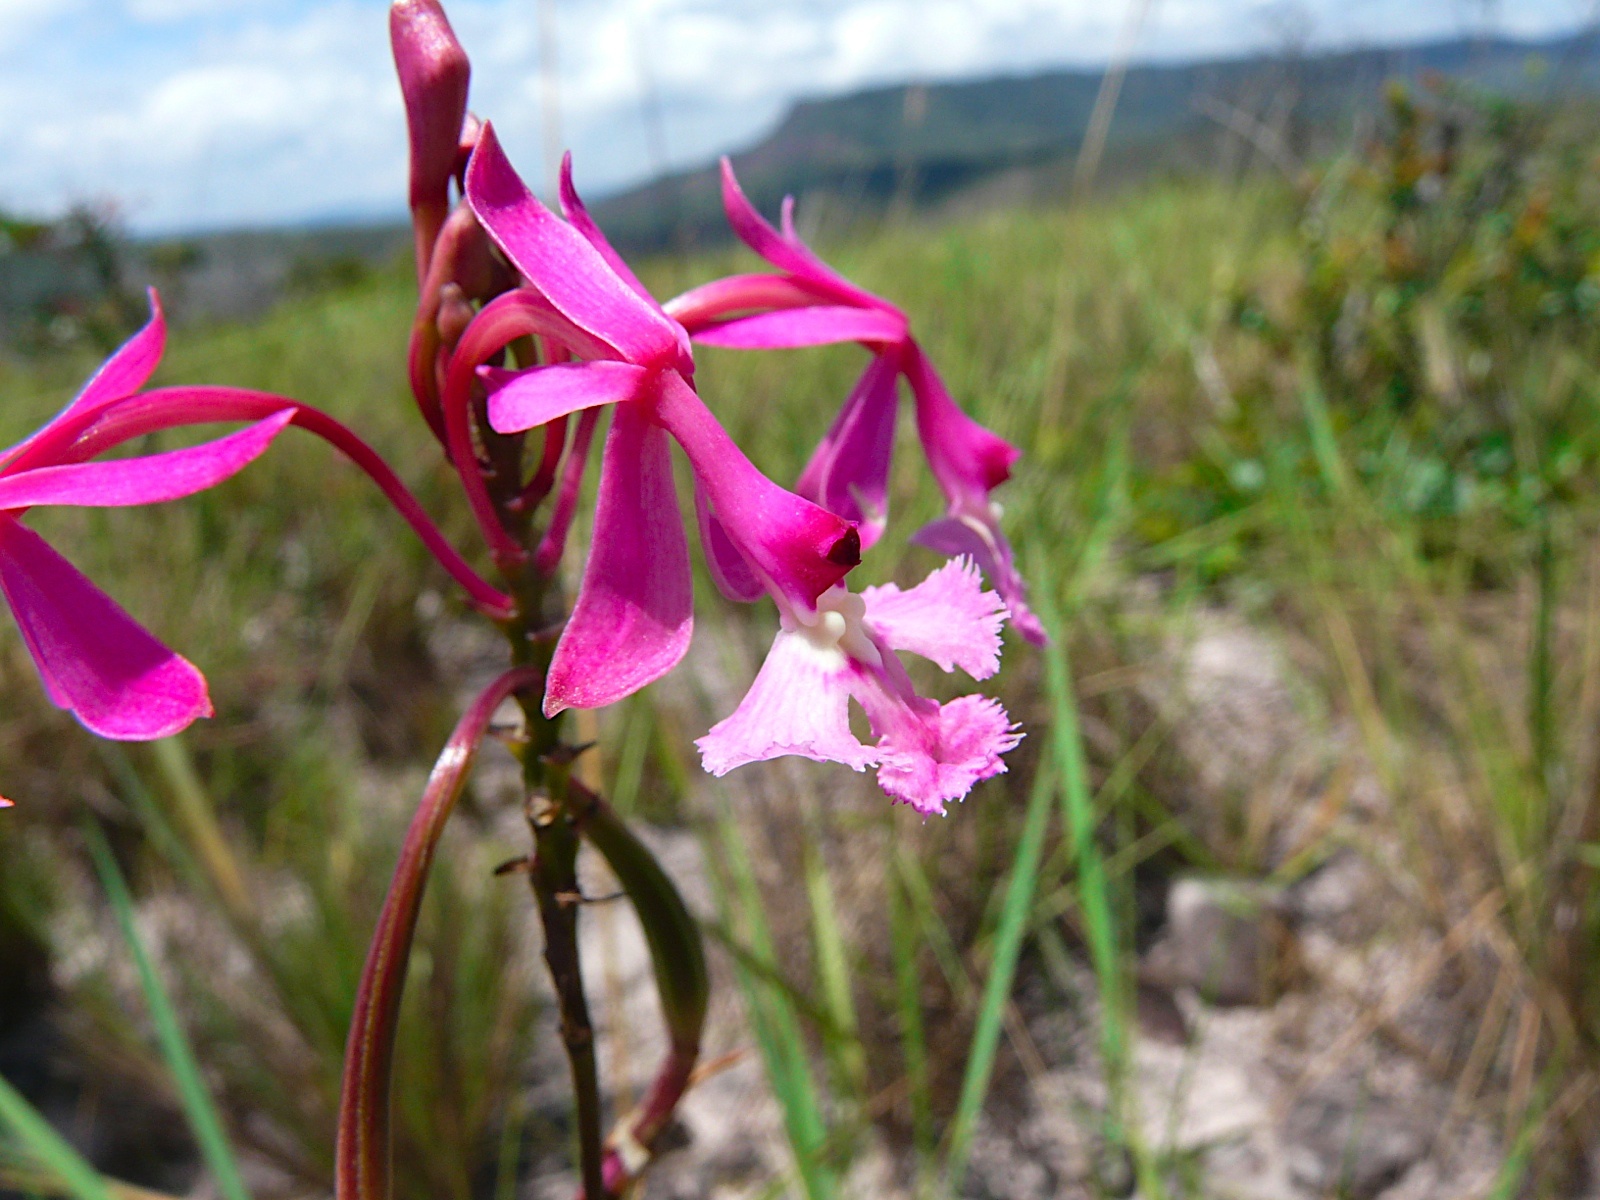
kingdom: Plantae
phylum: Tracheophyta
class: Liliopsida
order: Asparagales
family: Orchidaceae
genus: Epidendrum
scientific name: Epidendrum ibaguense
